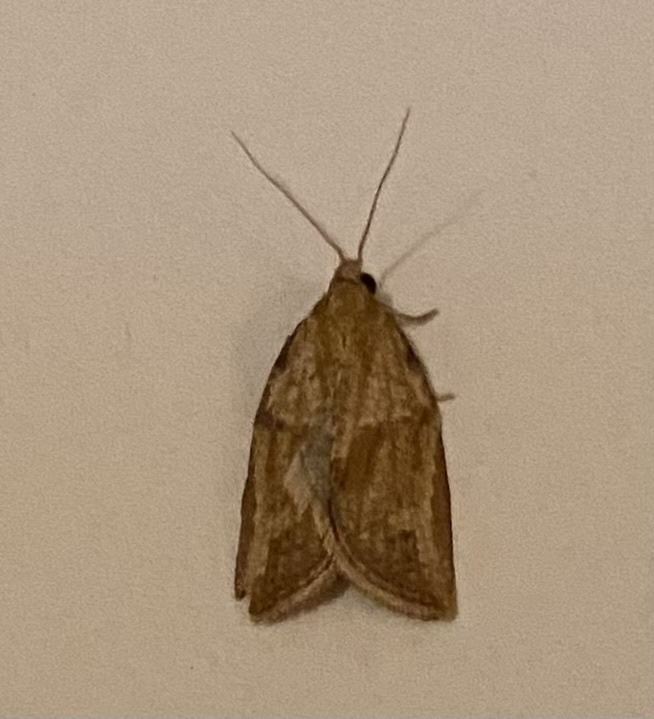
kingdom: Animalia
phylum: Arthropoda
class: Insecta
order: Lepidoptera
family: Tortricidae
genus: Epiphyas
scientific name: Epiphyas postvittana
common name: Light brown apple moth
